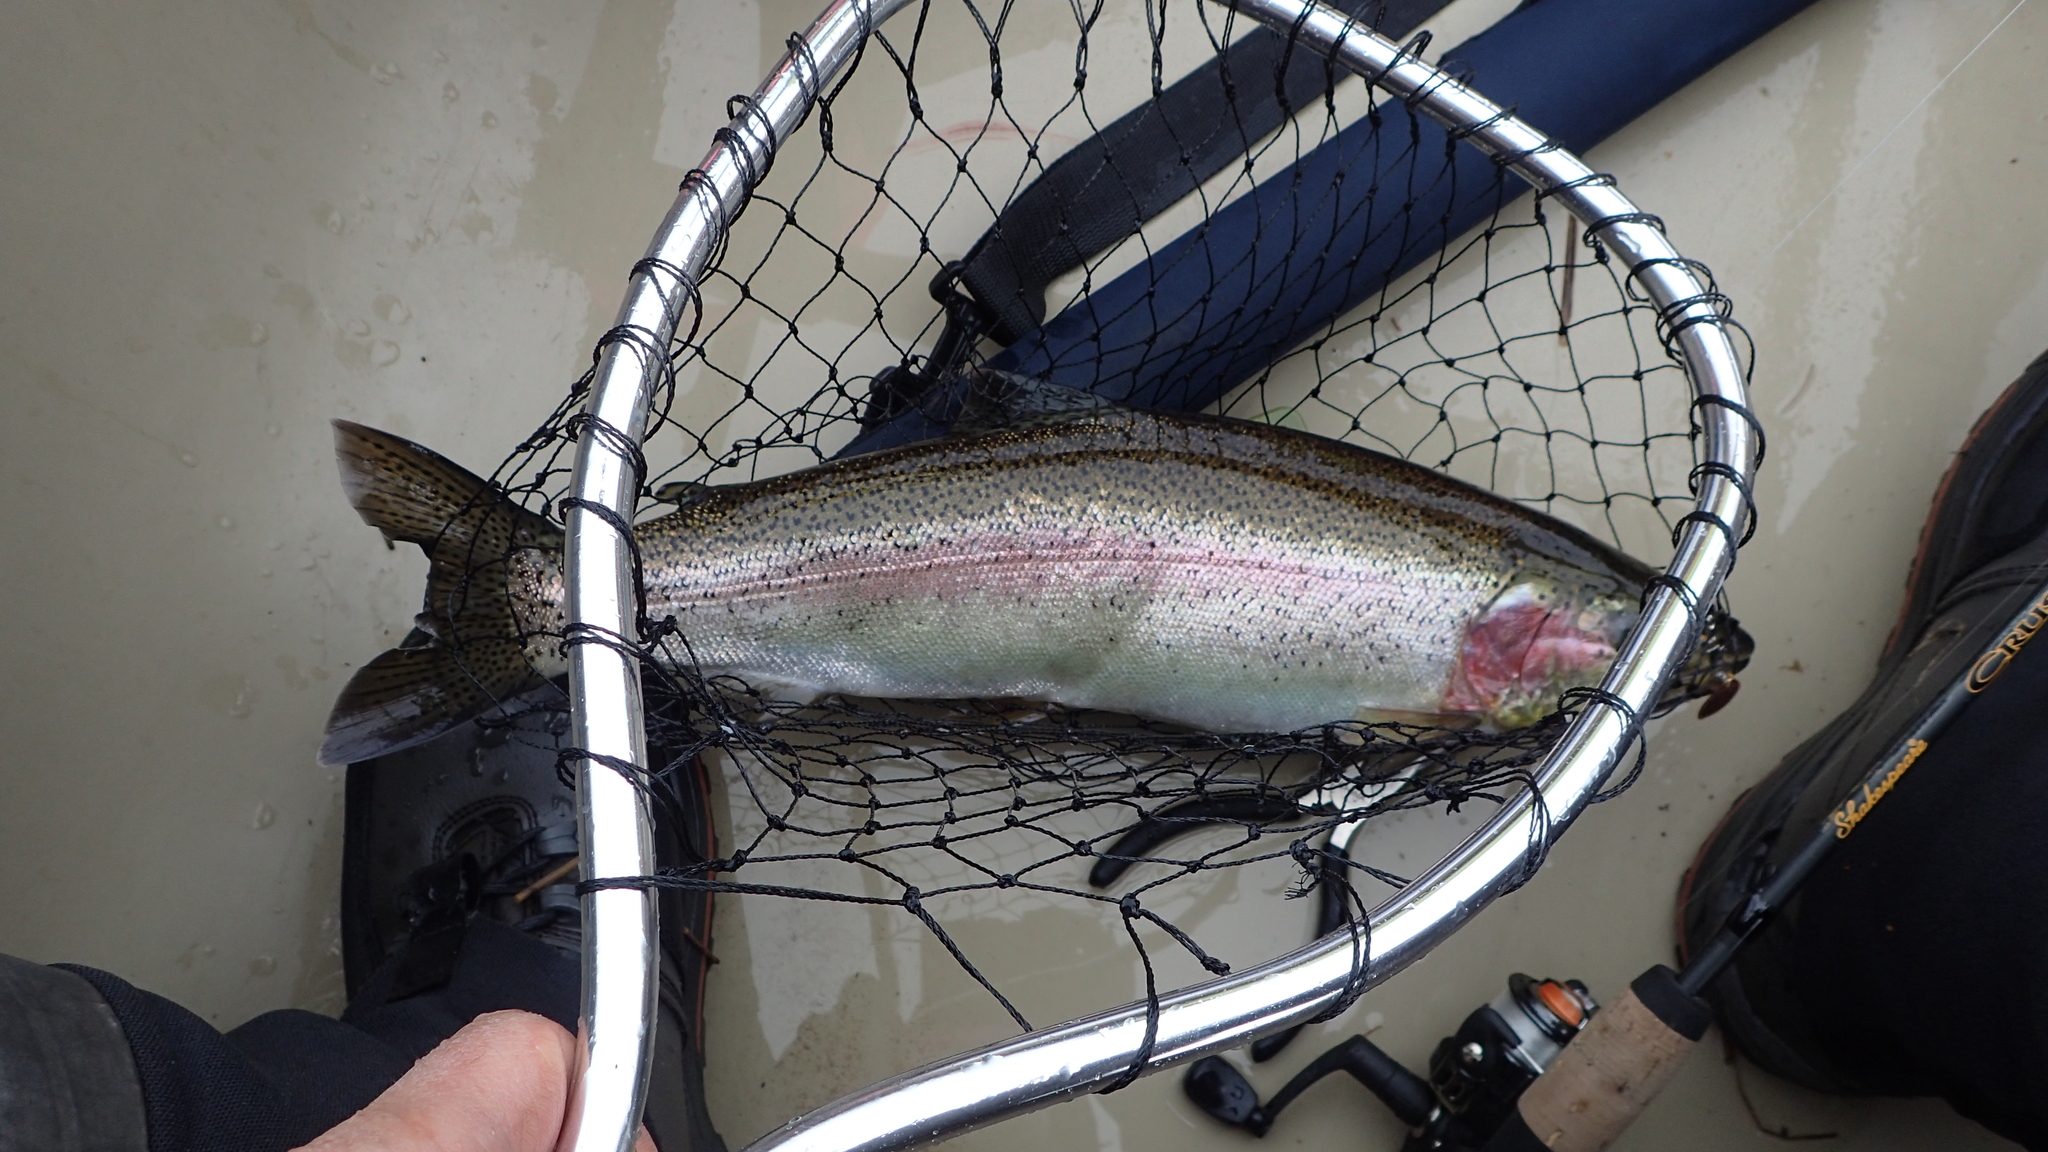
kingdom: Animalia
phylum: Chordata
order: Salmoniformes
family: Salmonidae
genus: Oncorhynchus
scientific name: Oncorhynchus mykiss
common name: Rainbow trout
